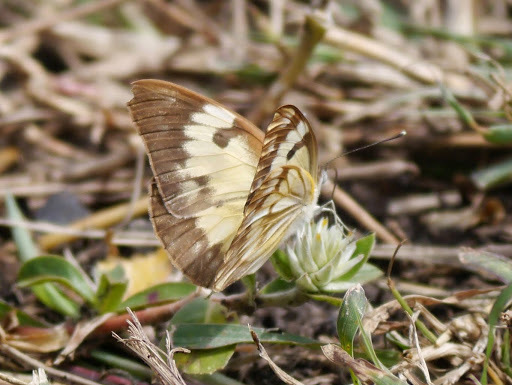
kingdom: Animalia
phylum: Arthropoda
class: Insecta
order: Lepidoptera
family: Pieridae
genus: Belenois
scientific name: Belenois aurota
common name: Brown-veined white
